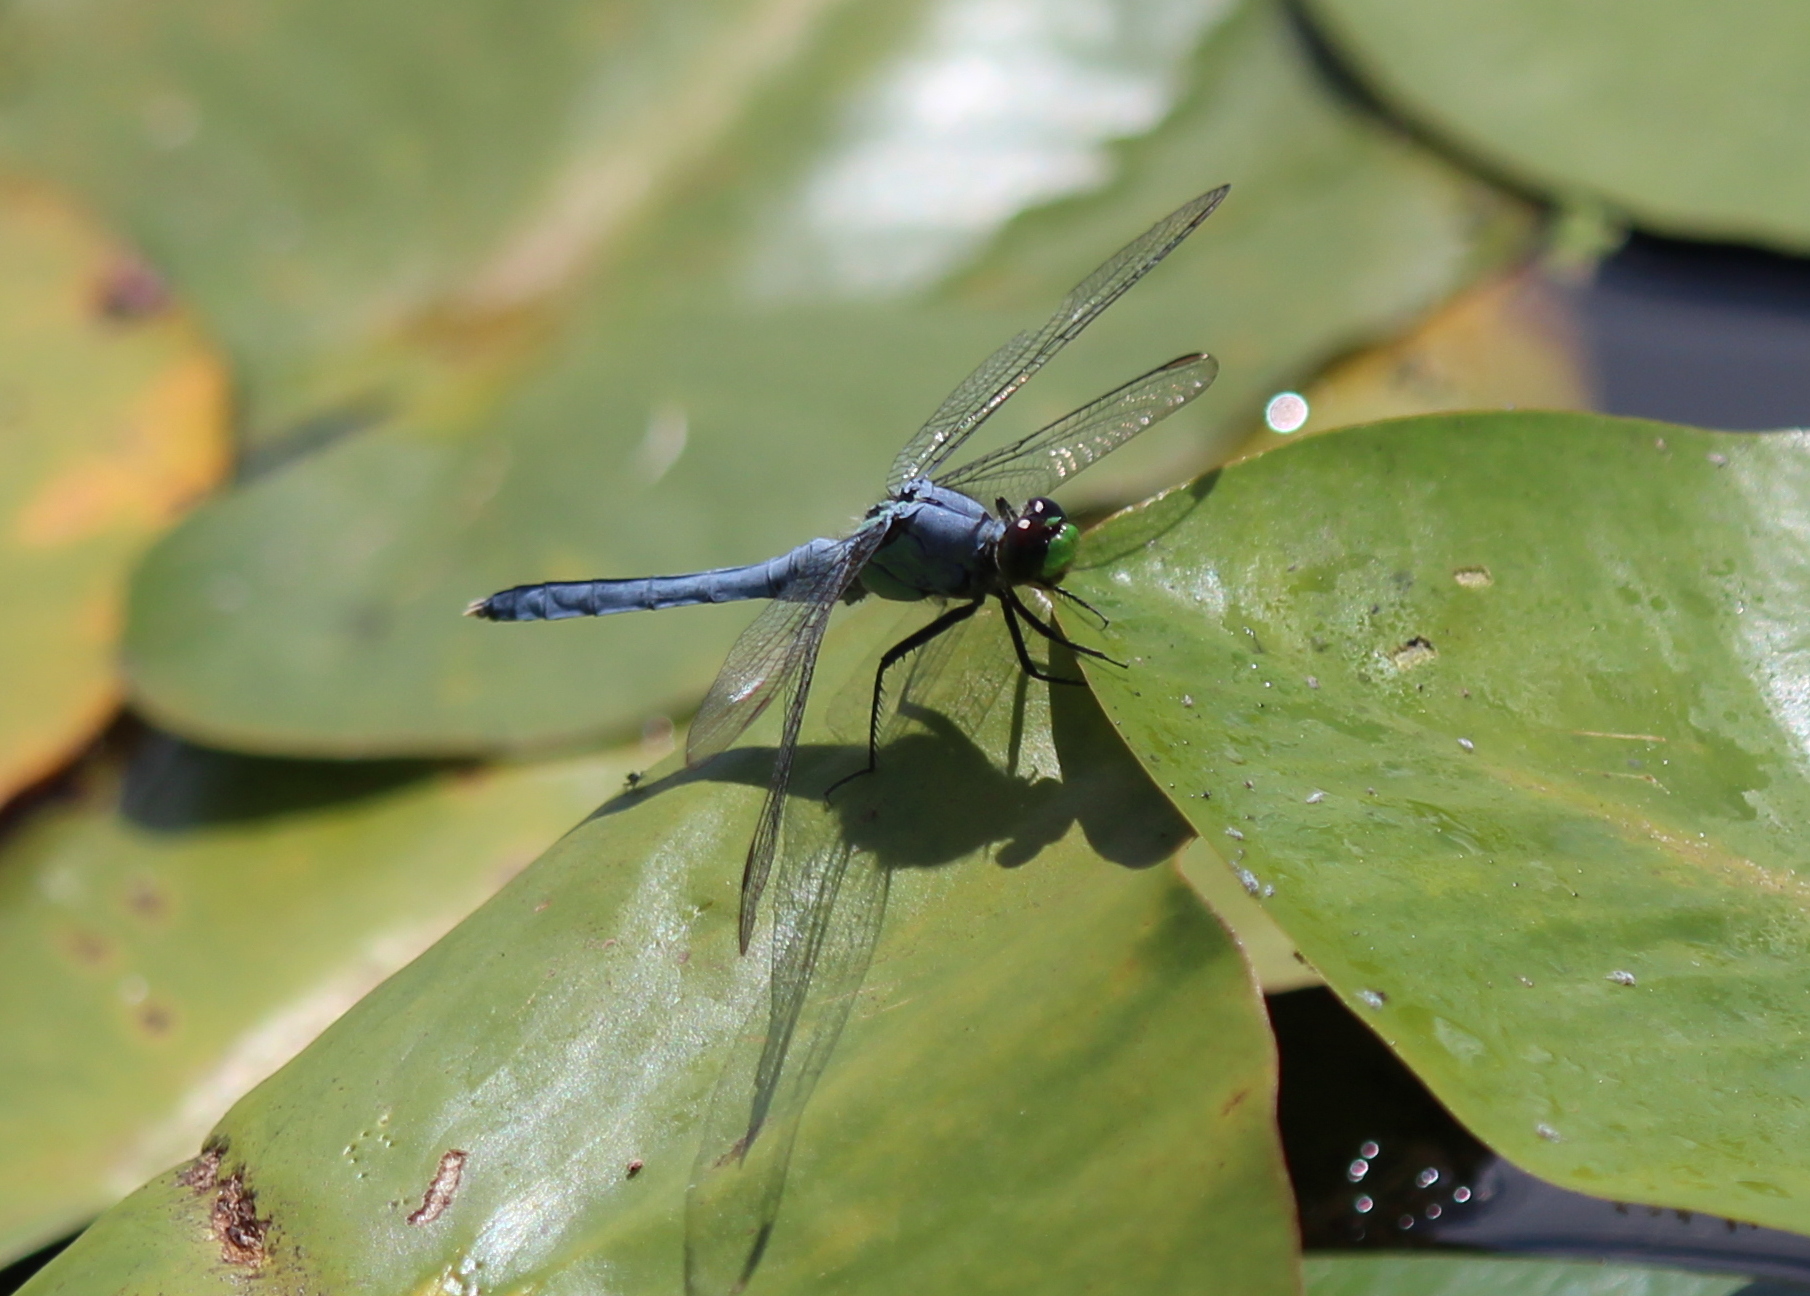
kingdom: Animalia
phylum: Arthropoda
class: Insecta
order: Odonata
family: Libellulidae
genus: Erythemis
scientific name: Erythemis simplicicollis
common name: Eastern pondhawk
